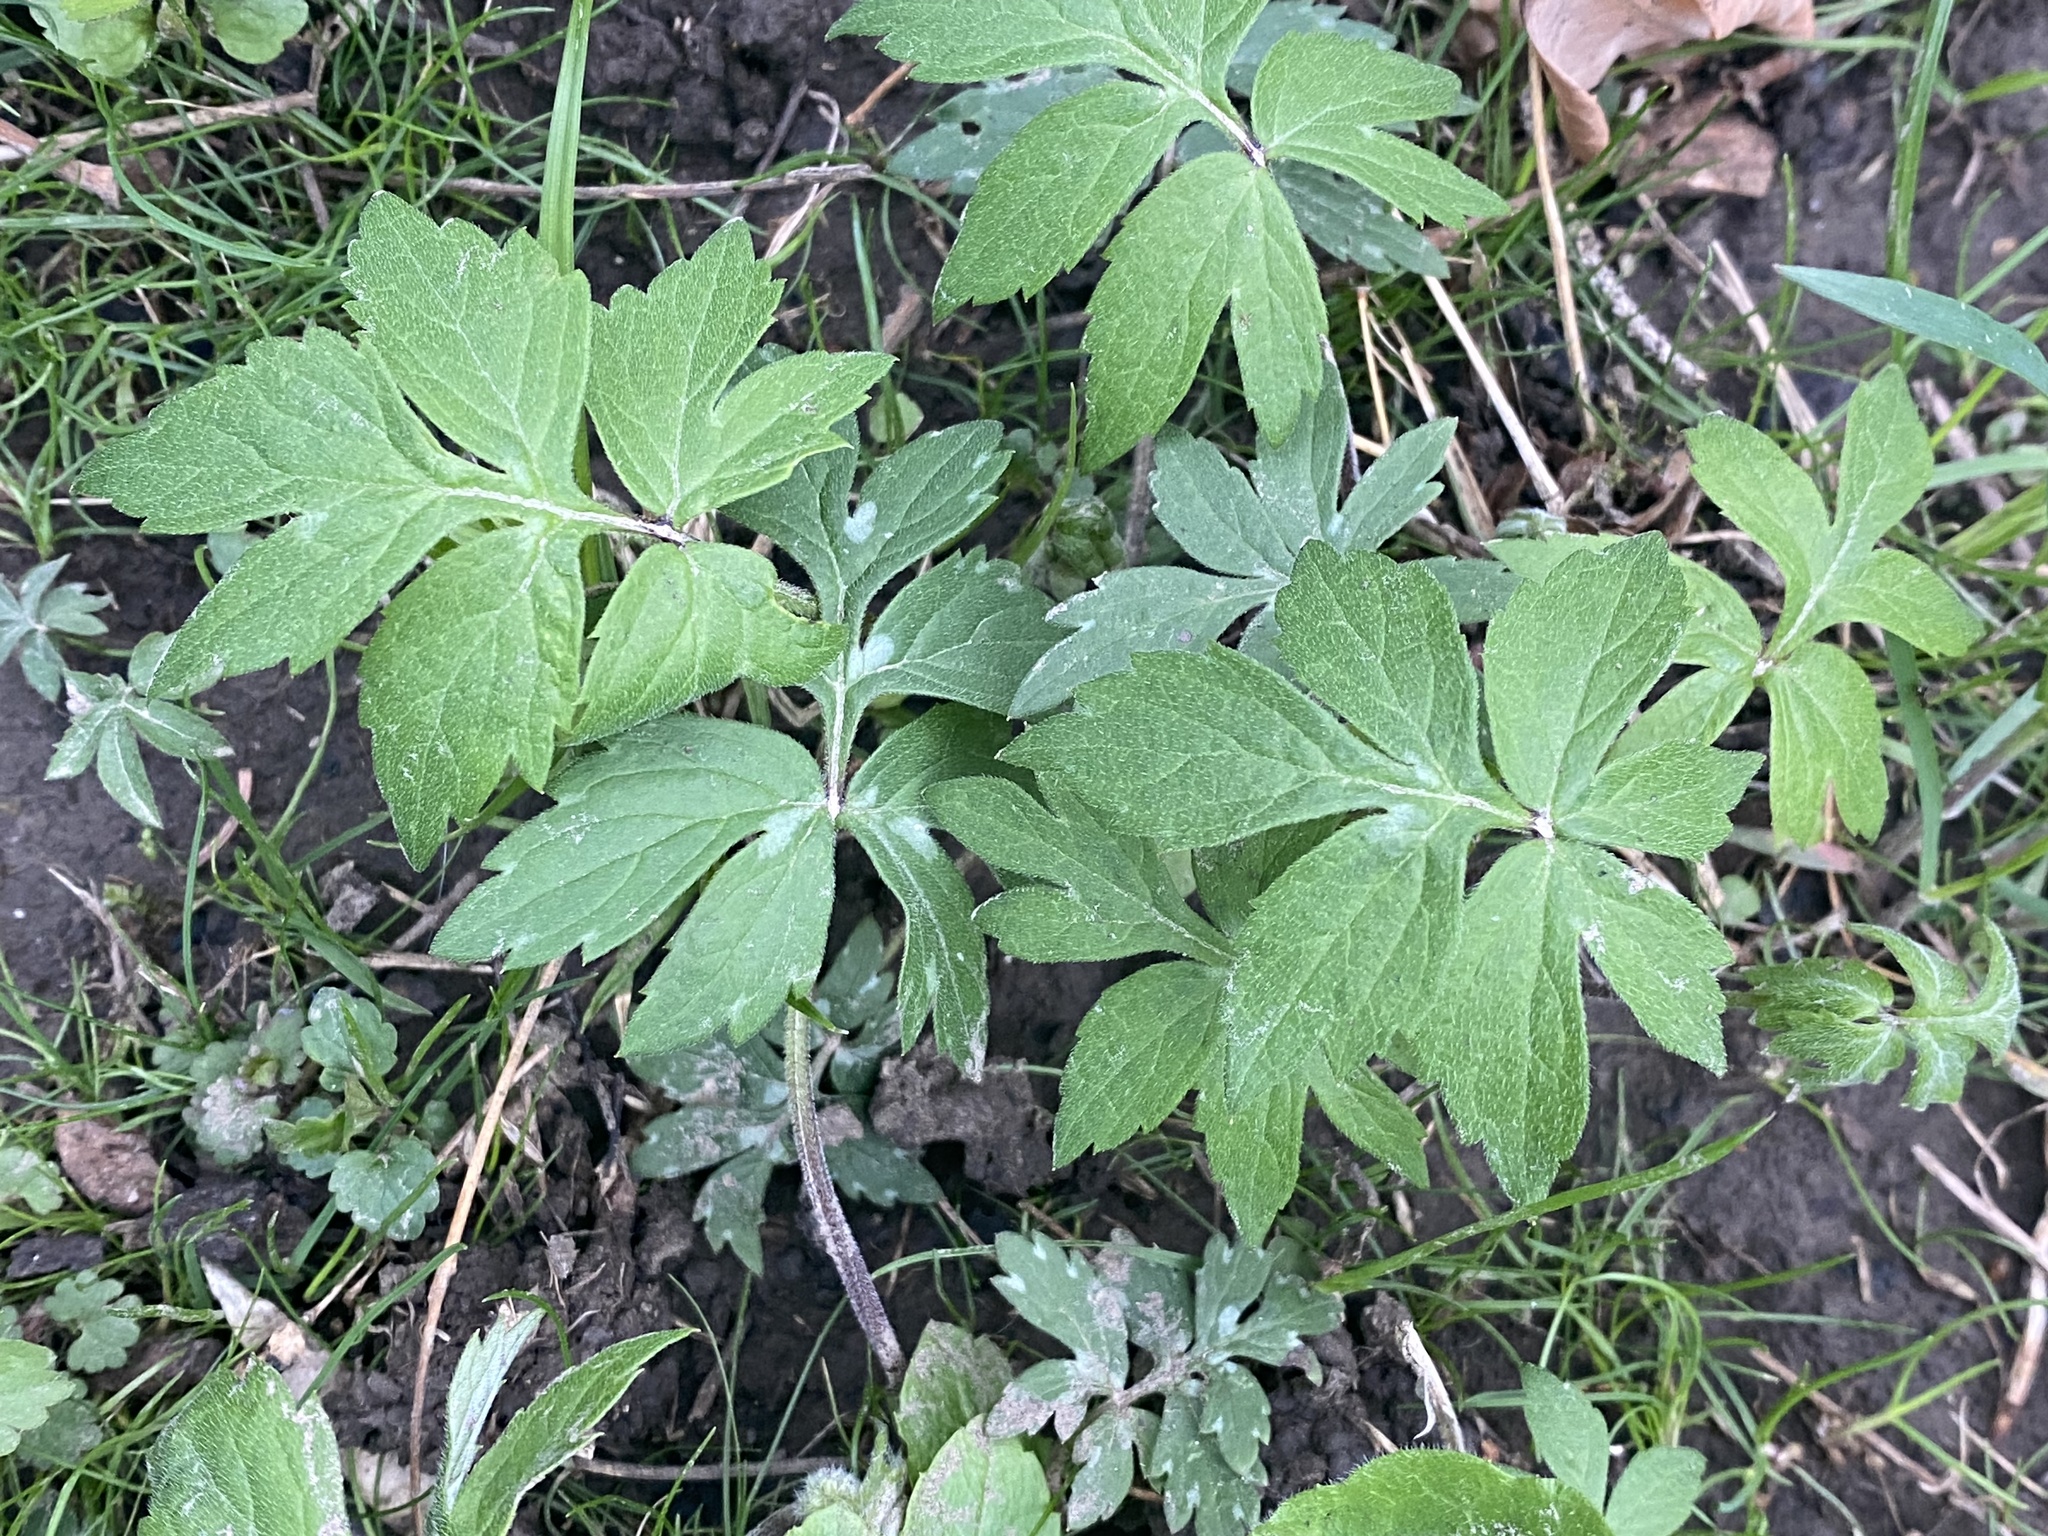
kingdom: Plantae
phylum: Tracheophyta
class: Magnoliopsida
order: Boraginales
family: Hydrophyllaceae
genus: Hydrophyllum
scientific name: Hydrophyllum virginianum
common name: Virginia waterleaf
